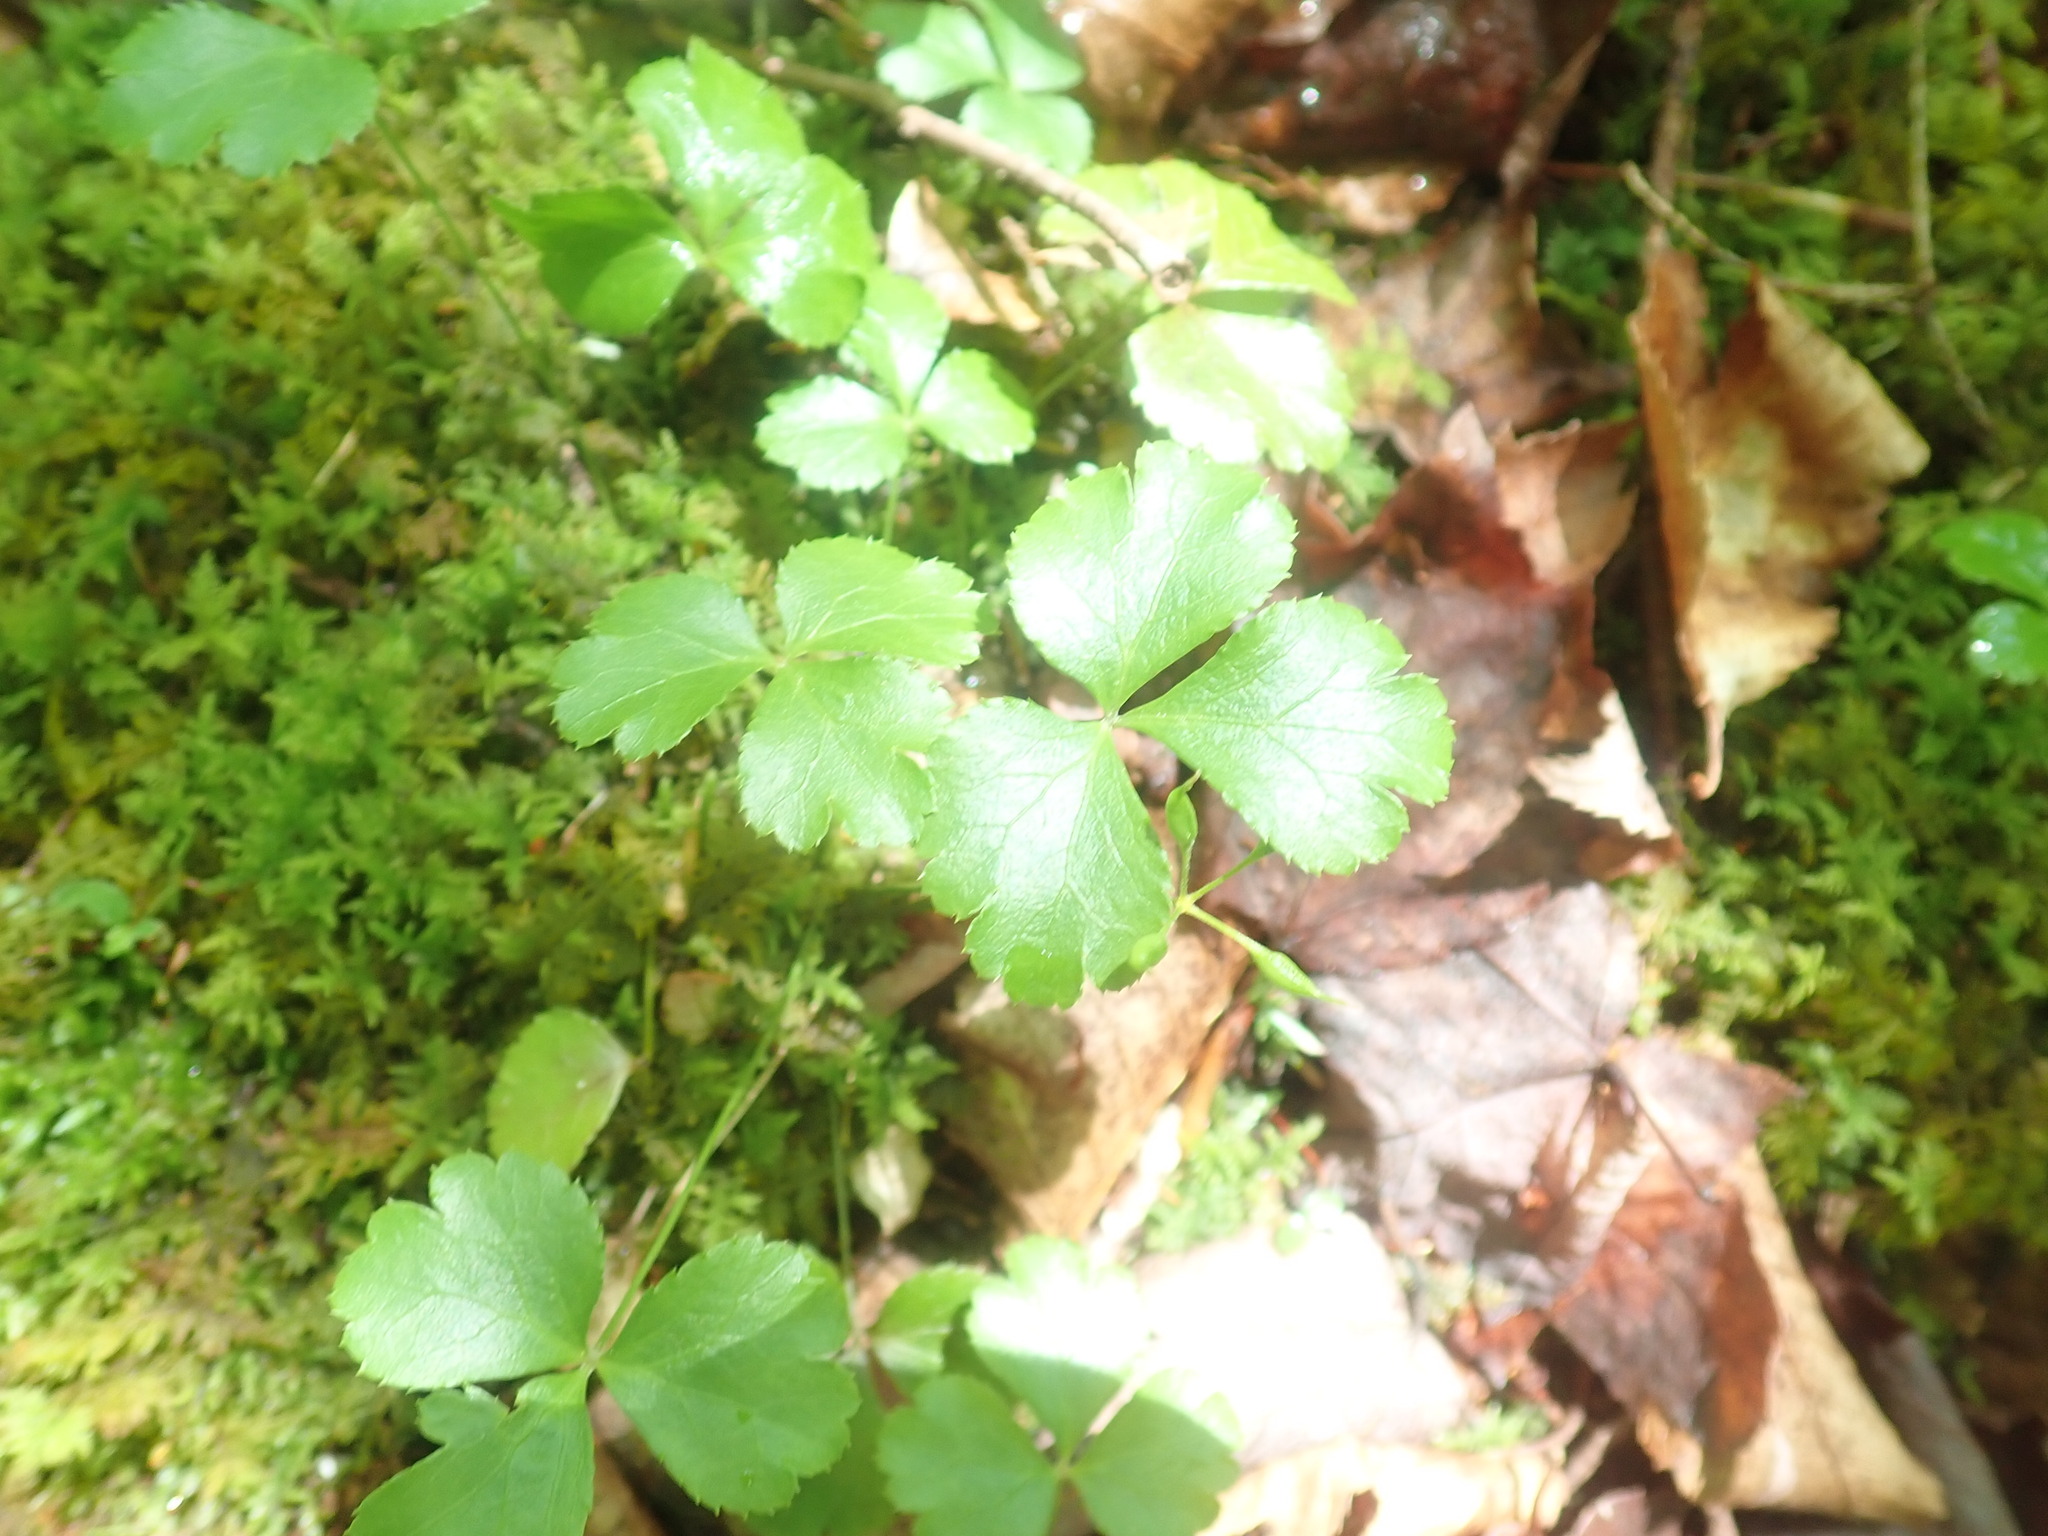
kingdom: Plantae
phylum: Tracheophyta
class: Magnoliopsida
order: Ranunculales
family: Ranunculaceae
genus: Coptis
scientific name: Coptis trifolia
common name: Canker-root
